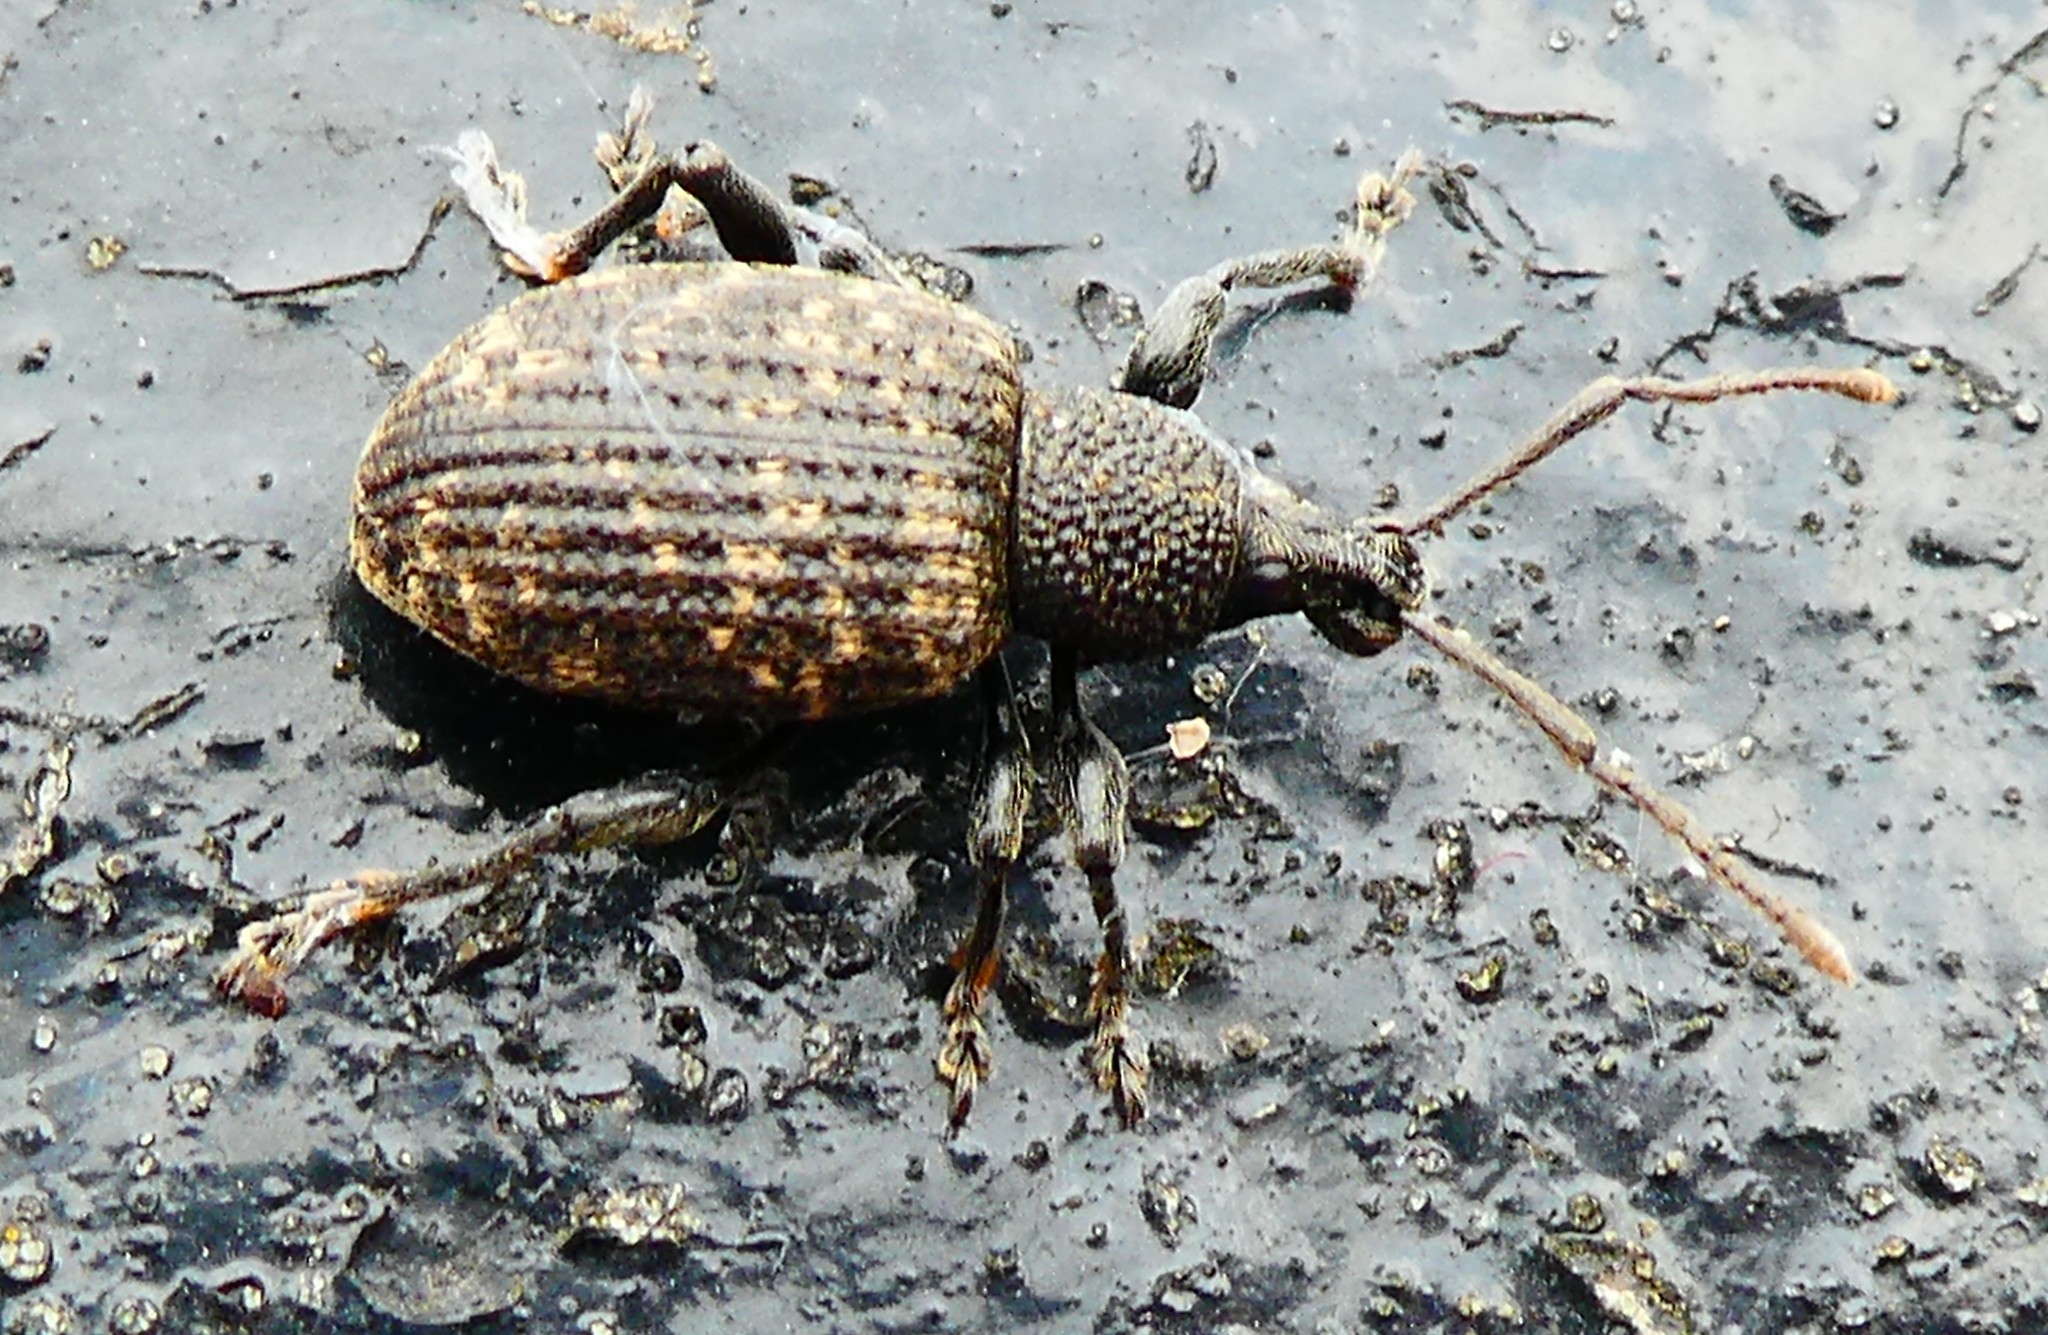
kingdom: Animalia
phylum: Arthropoda
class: Insecta
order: Coleoptera
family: Curculionidae
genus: Otiorhynchus
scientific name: Otiorhynchus sulcatus
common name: Black vine weevil
